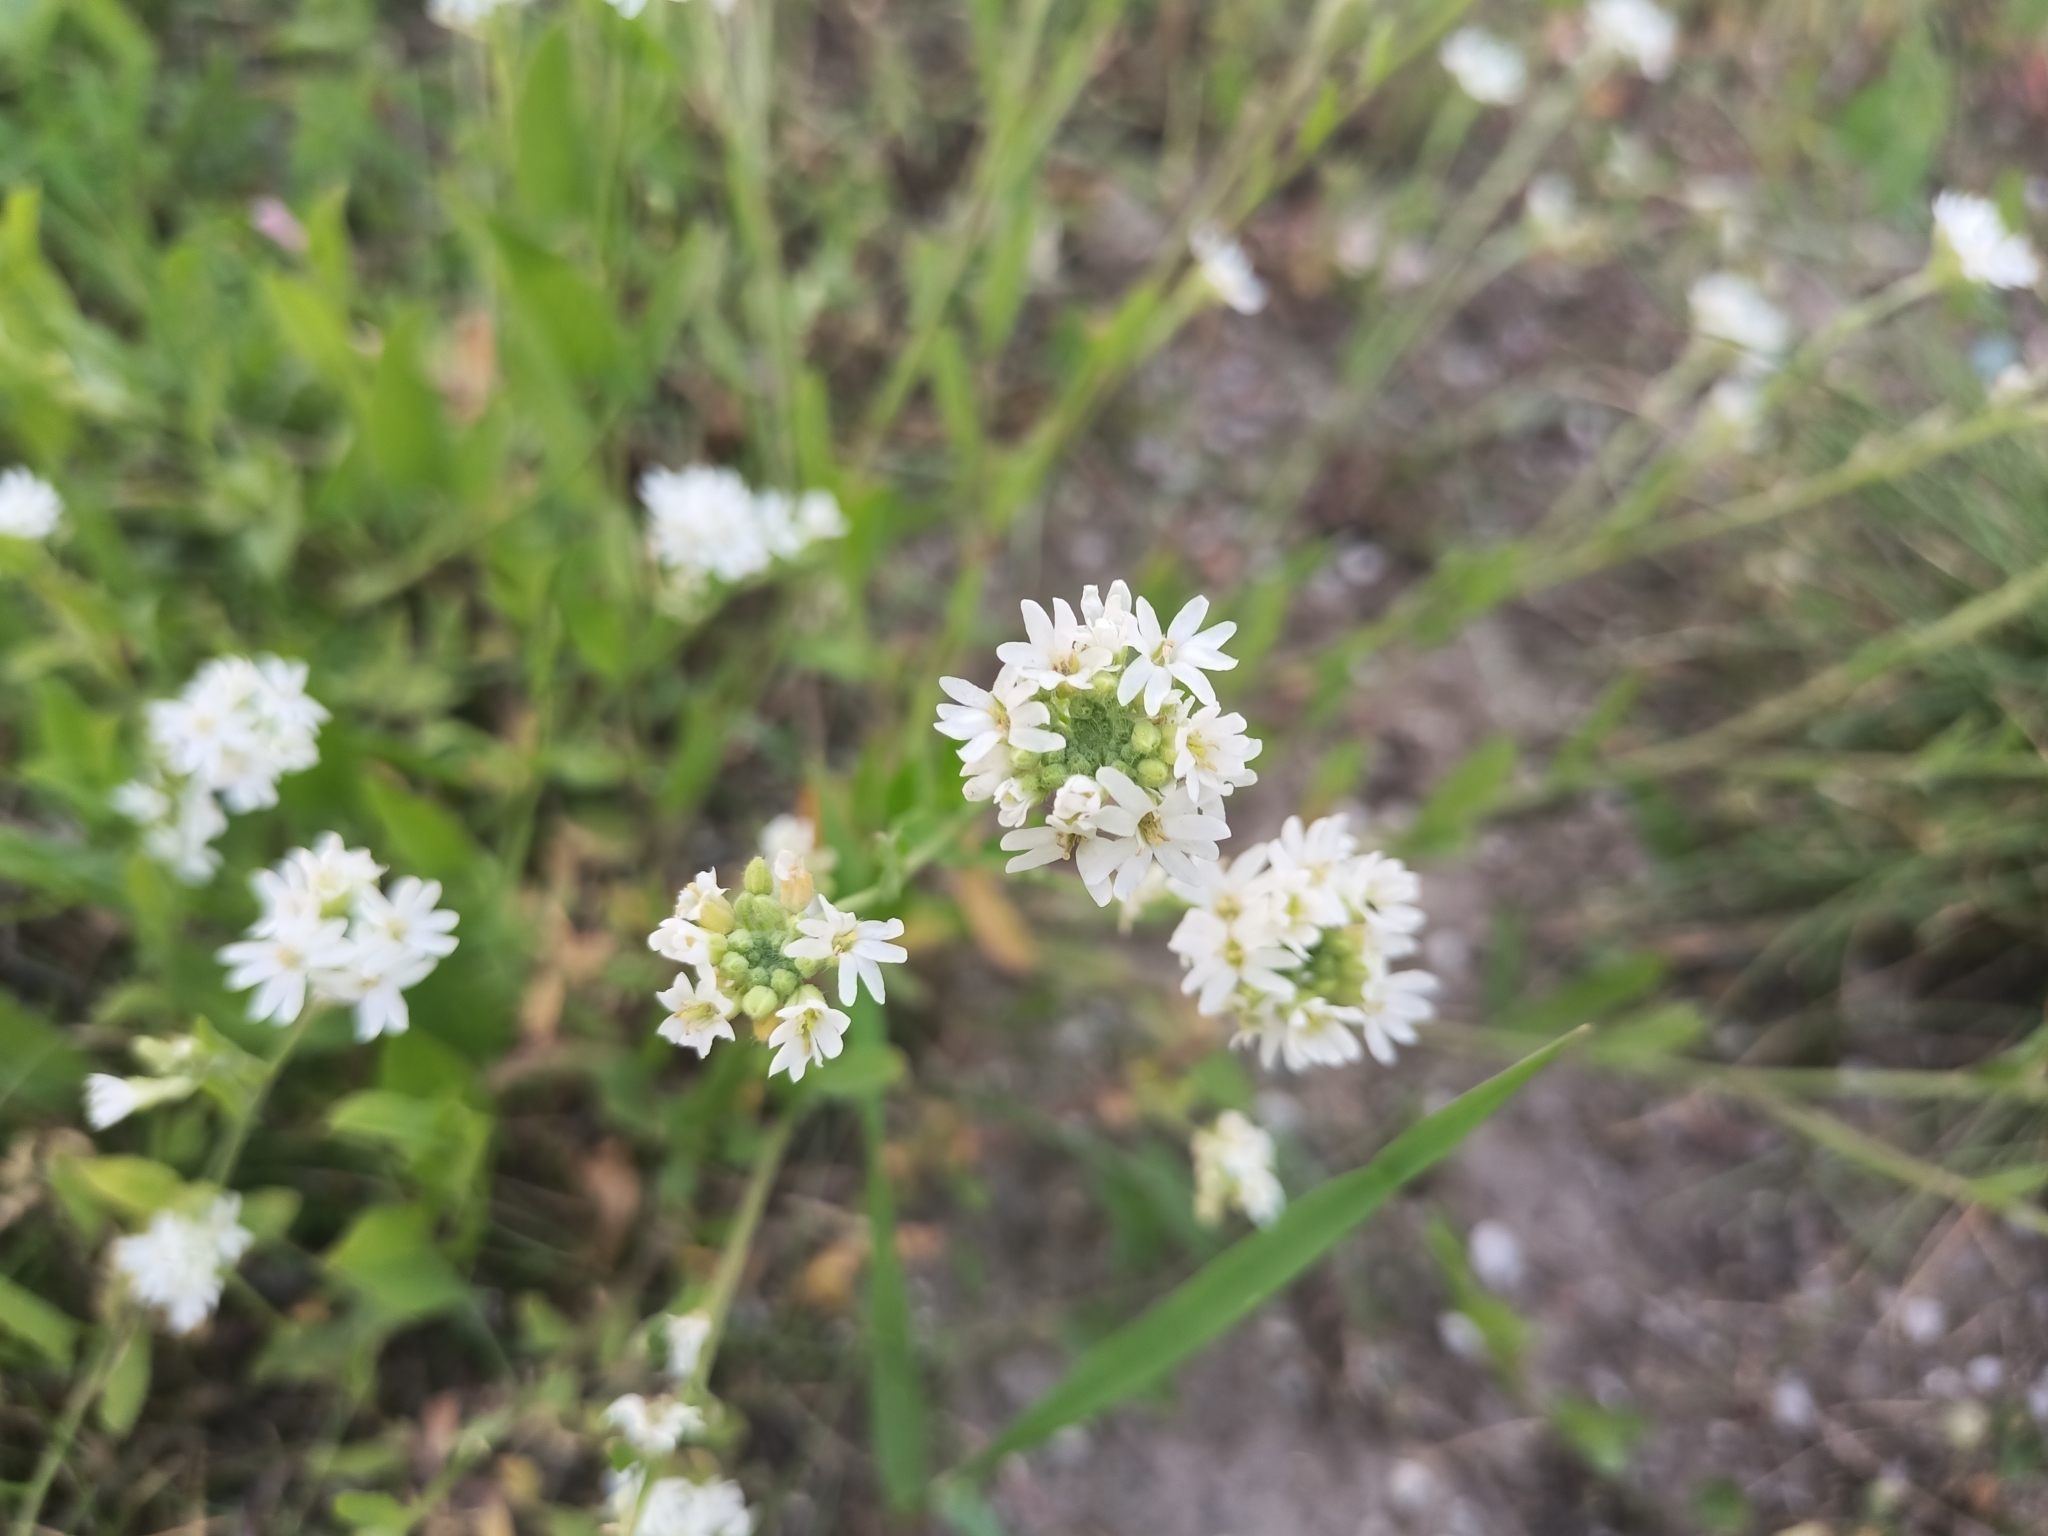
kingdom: Plantae
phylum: Tracheophyta
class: Magnoliopsida
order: Brassicales
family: Brassicaceae
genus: Berteroa
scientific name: Berteroa incana
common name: Hoary alison
